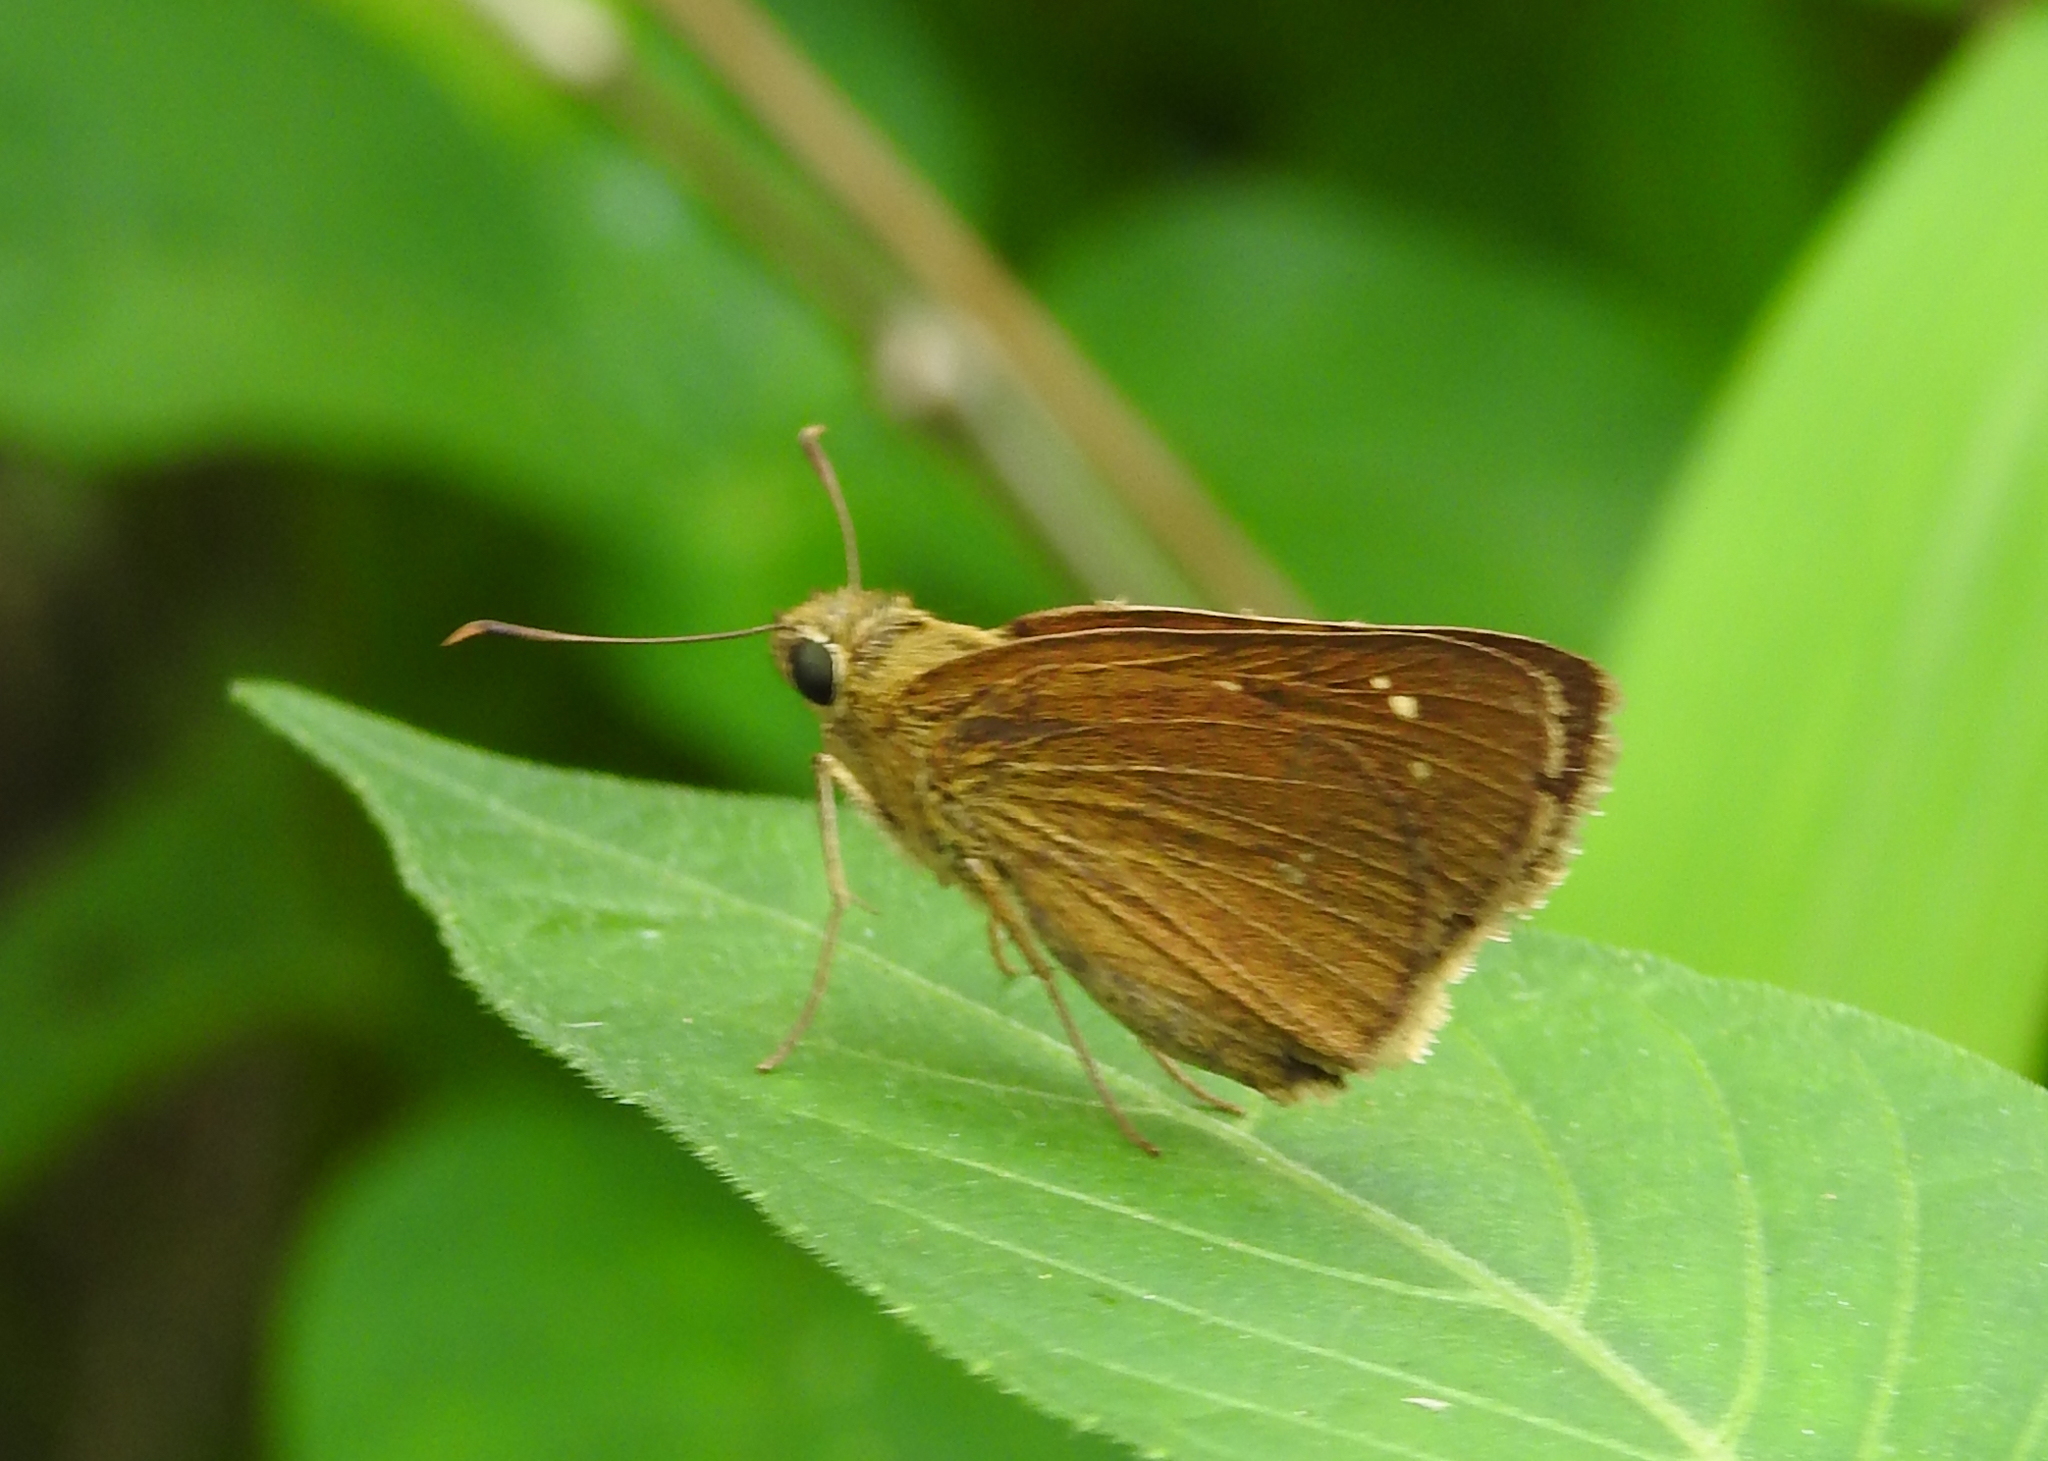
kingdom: Animalia
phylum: Arthropoda
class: Insecta
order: Lepidoptera
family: Hesperiidae
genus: Polytremis
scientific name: Polytremis lubricans
